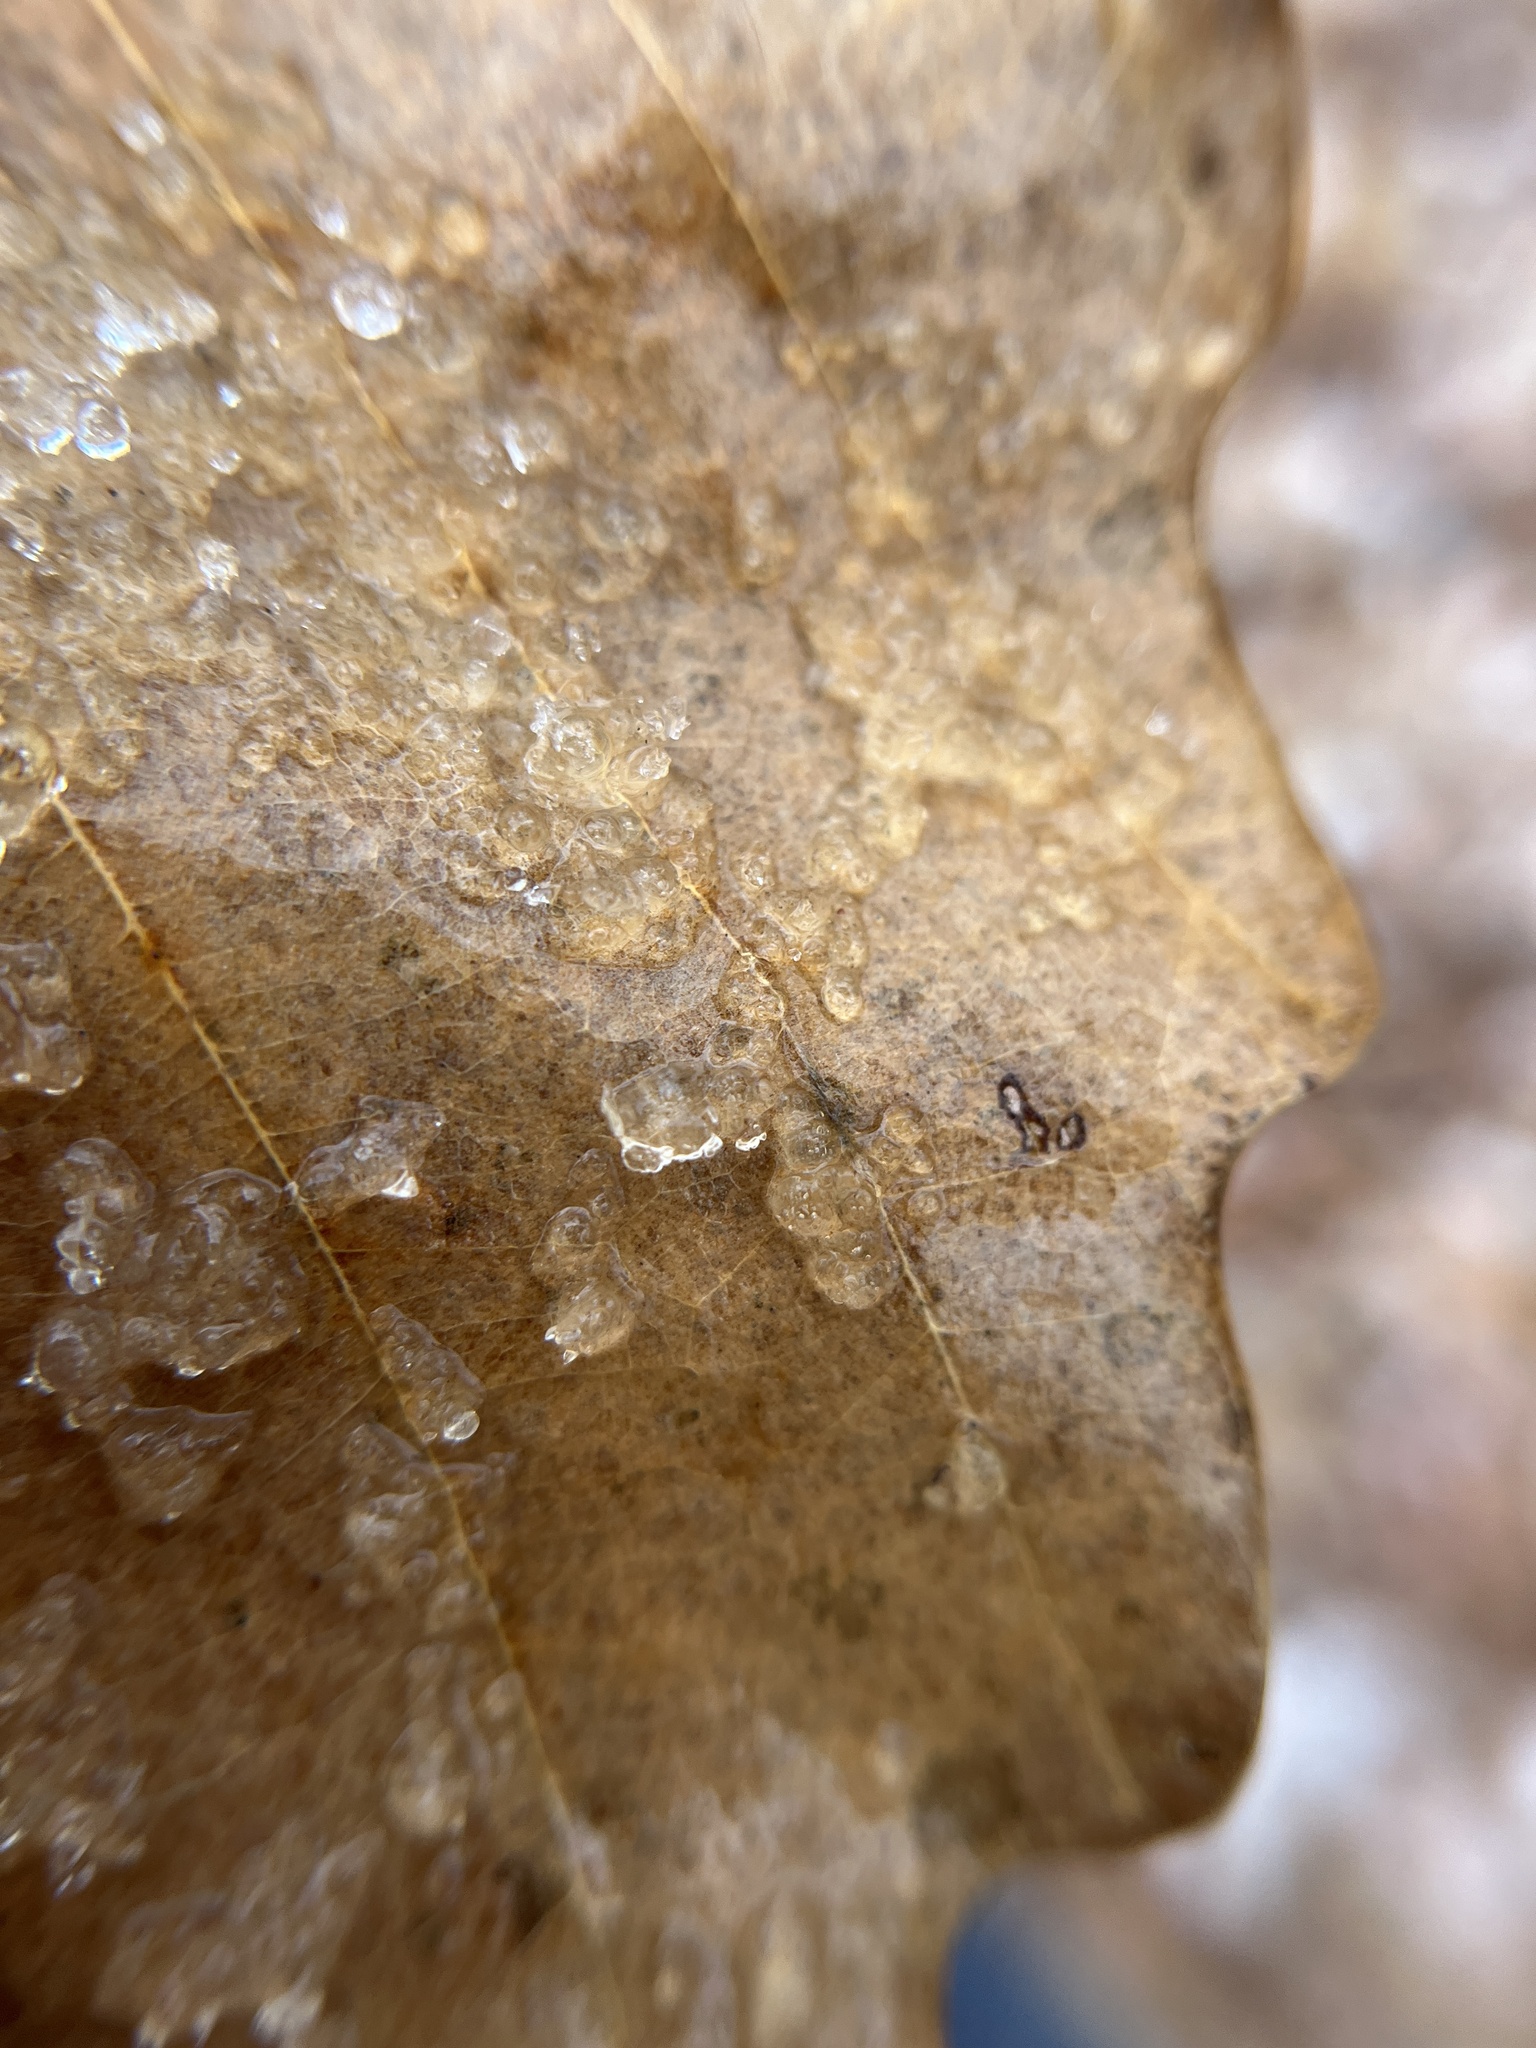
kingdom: Animalia
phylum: Arthropoda
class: Insecta
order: Hymenoptera
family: Cynipidae
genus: Acraspis
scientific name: Acraspis quercushirta
